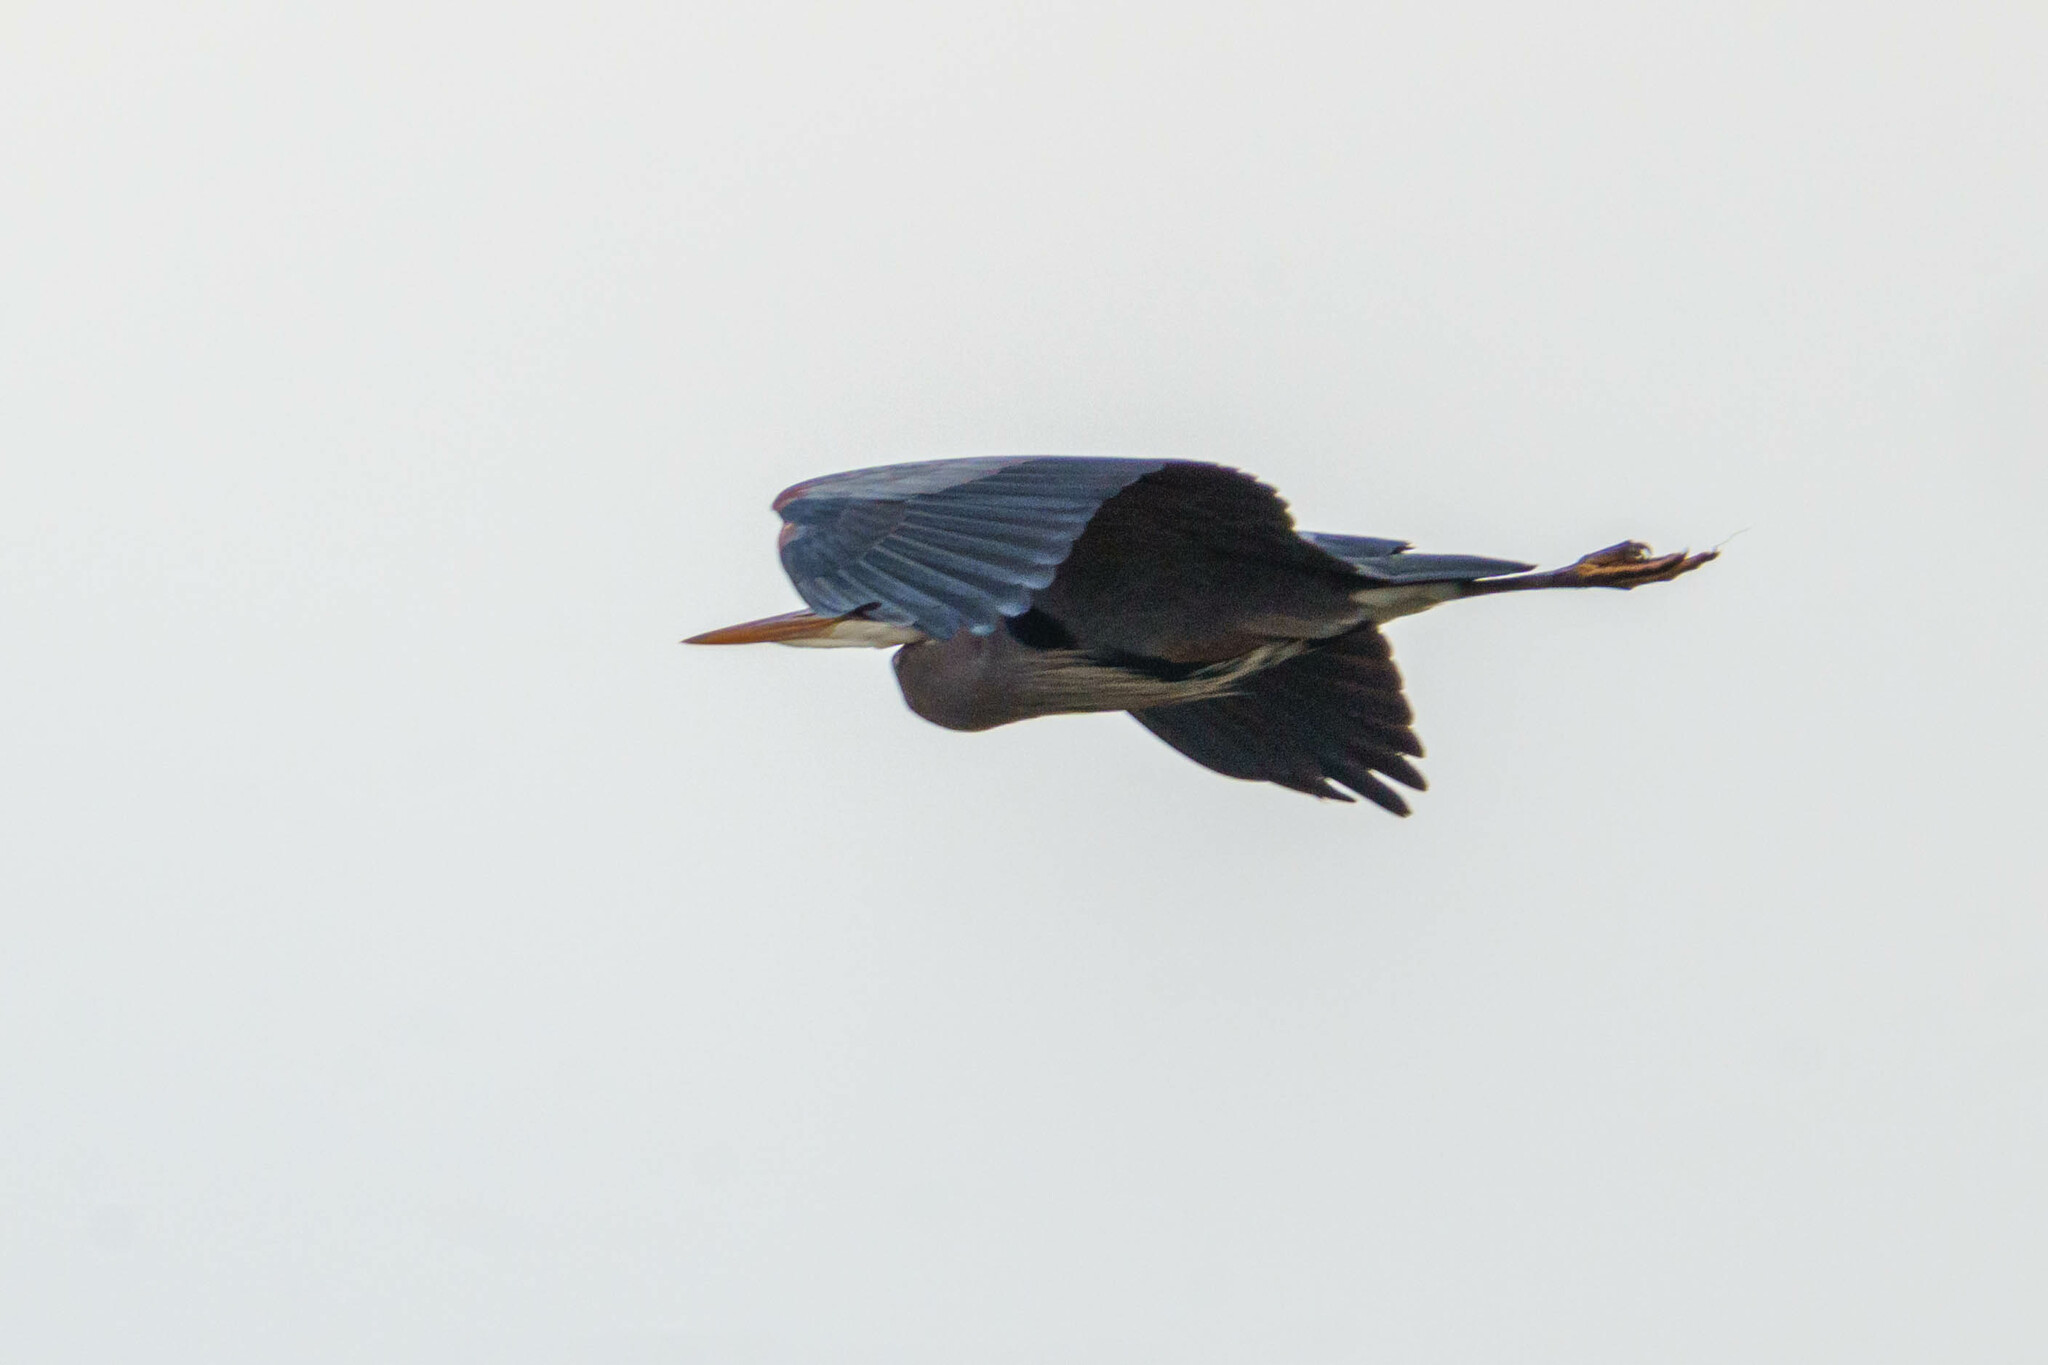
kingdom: Animalia
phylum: Chordata
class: Aves
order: Pelecaniformes
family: Ardeidae
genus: Ardea
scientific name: Ardea herodias
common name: Great blue heron
